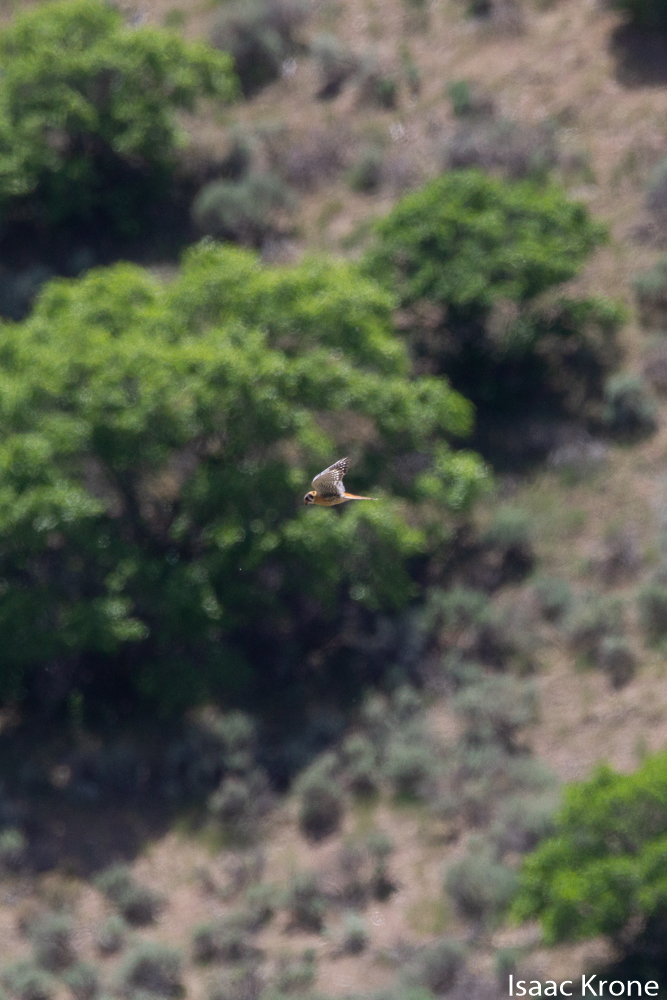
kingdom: Animalia
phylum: Chordata
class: Aves
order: Falconiformes
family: Falconidae
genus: Falco
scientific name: Falco sparverius
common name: American kestrel
